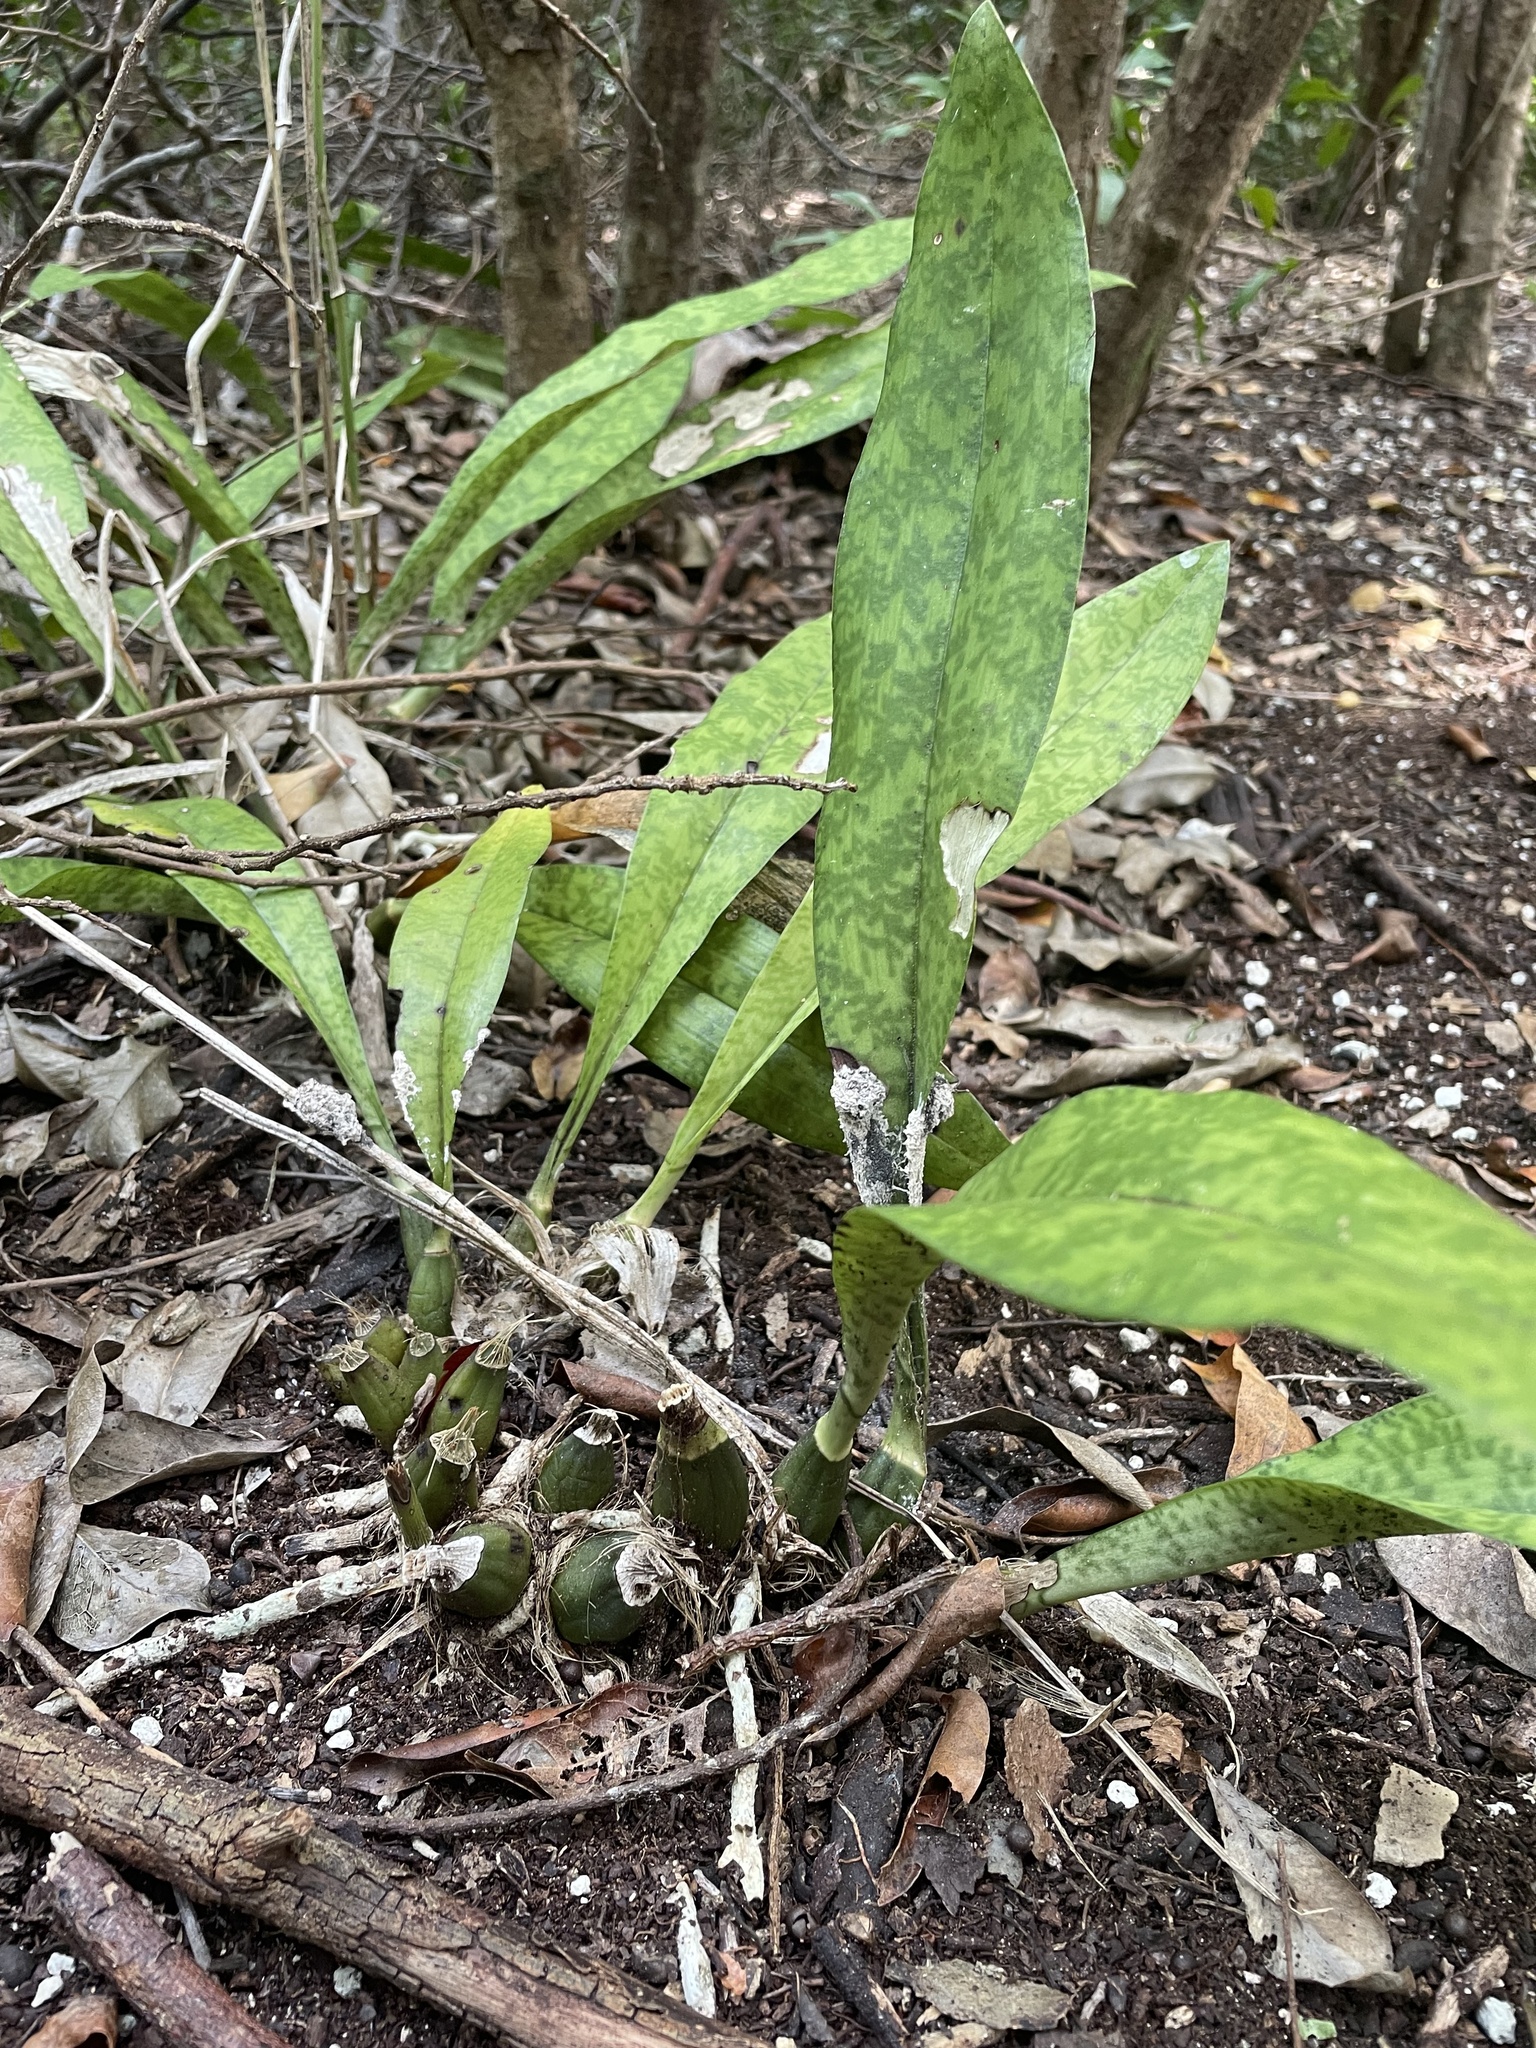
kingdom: Plantae
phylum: Tracheophyta
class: Liliopsida
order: Asparagales
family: Orchidaceae
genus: Eulophia
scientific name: Eulophia maculata
